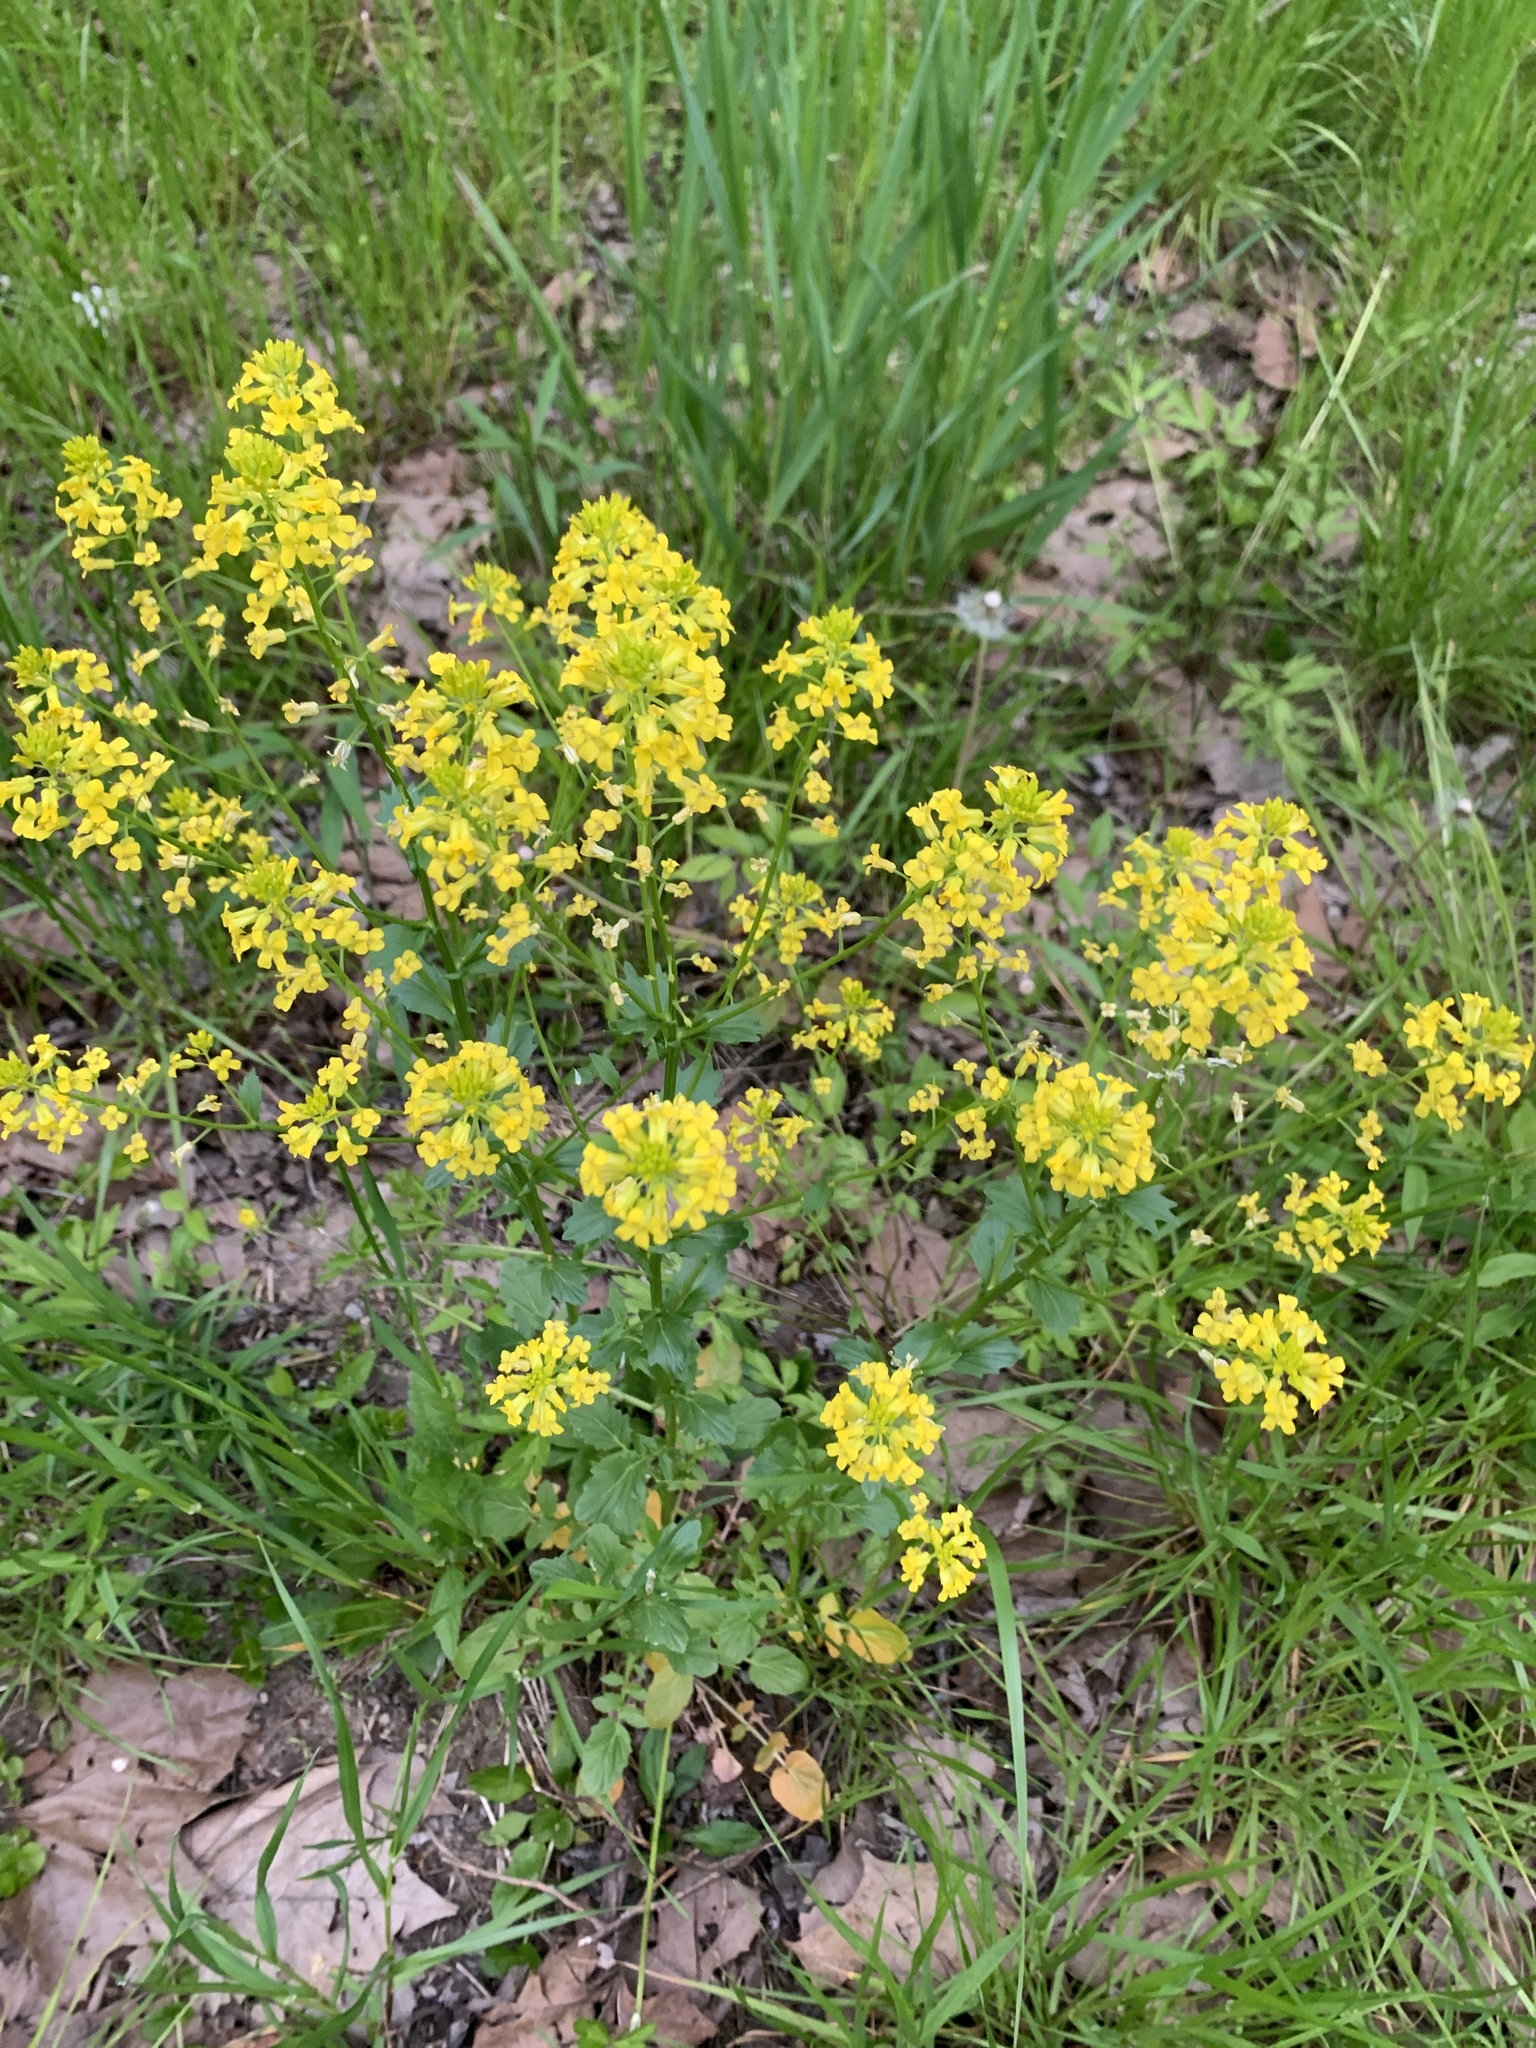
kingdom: Plantae
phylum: Tracheophyta
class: Magnoliopsida
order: Brassicales
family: Brassicaceae
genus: Barbarea
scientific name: Barbarea verna
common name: American cress
